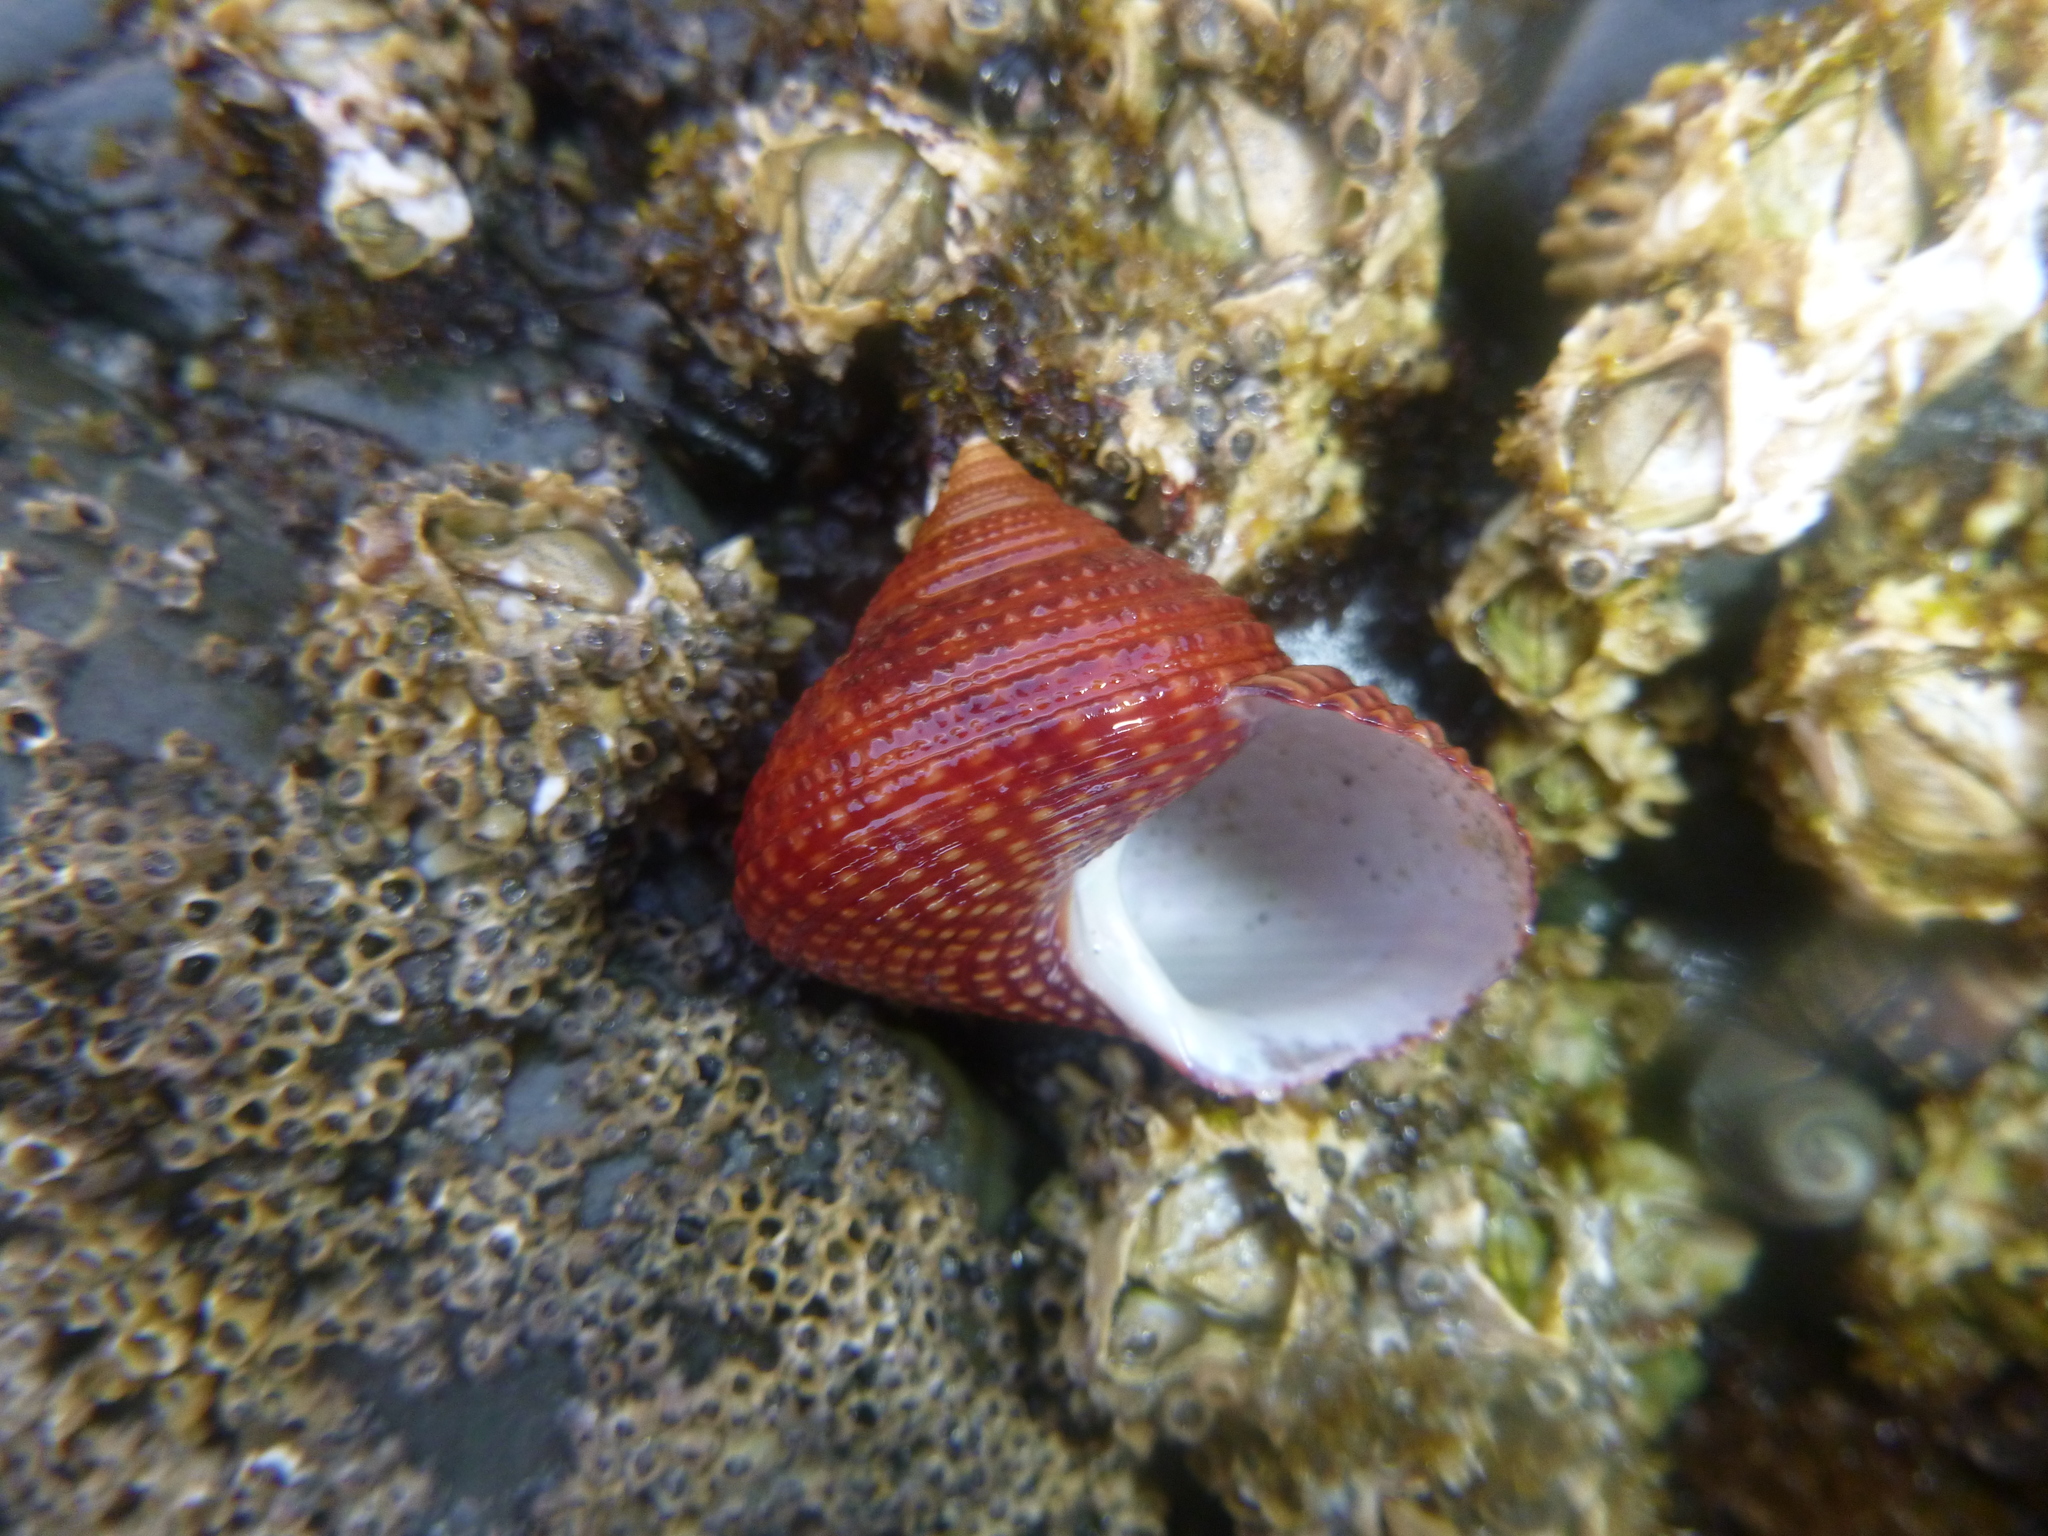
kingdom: Animalia
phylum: Mollusca
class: Gastropoda
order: Trochida
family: Calliostomatidae
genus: Maurea
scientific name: Maurea punctulata
